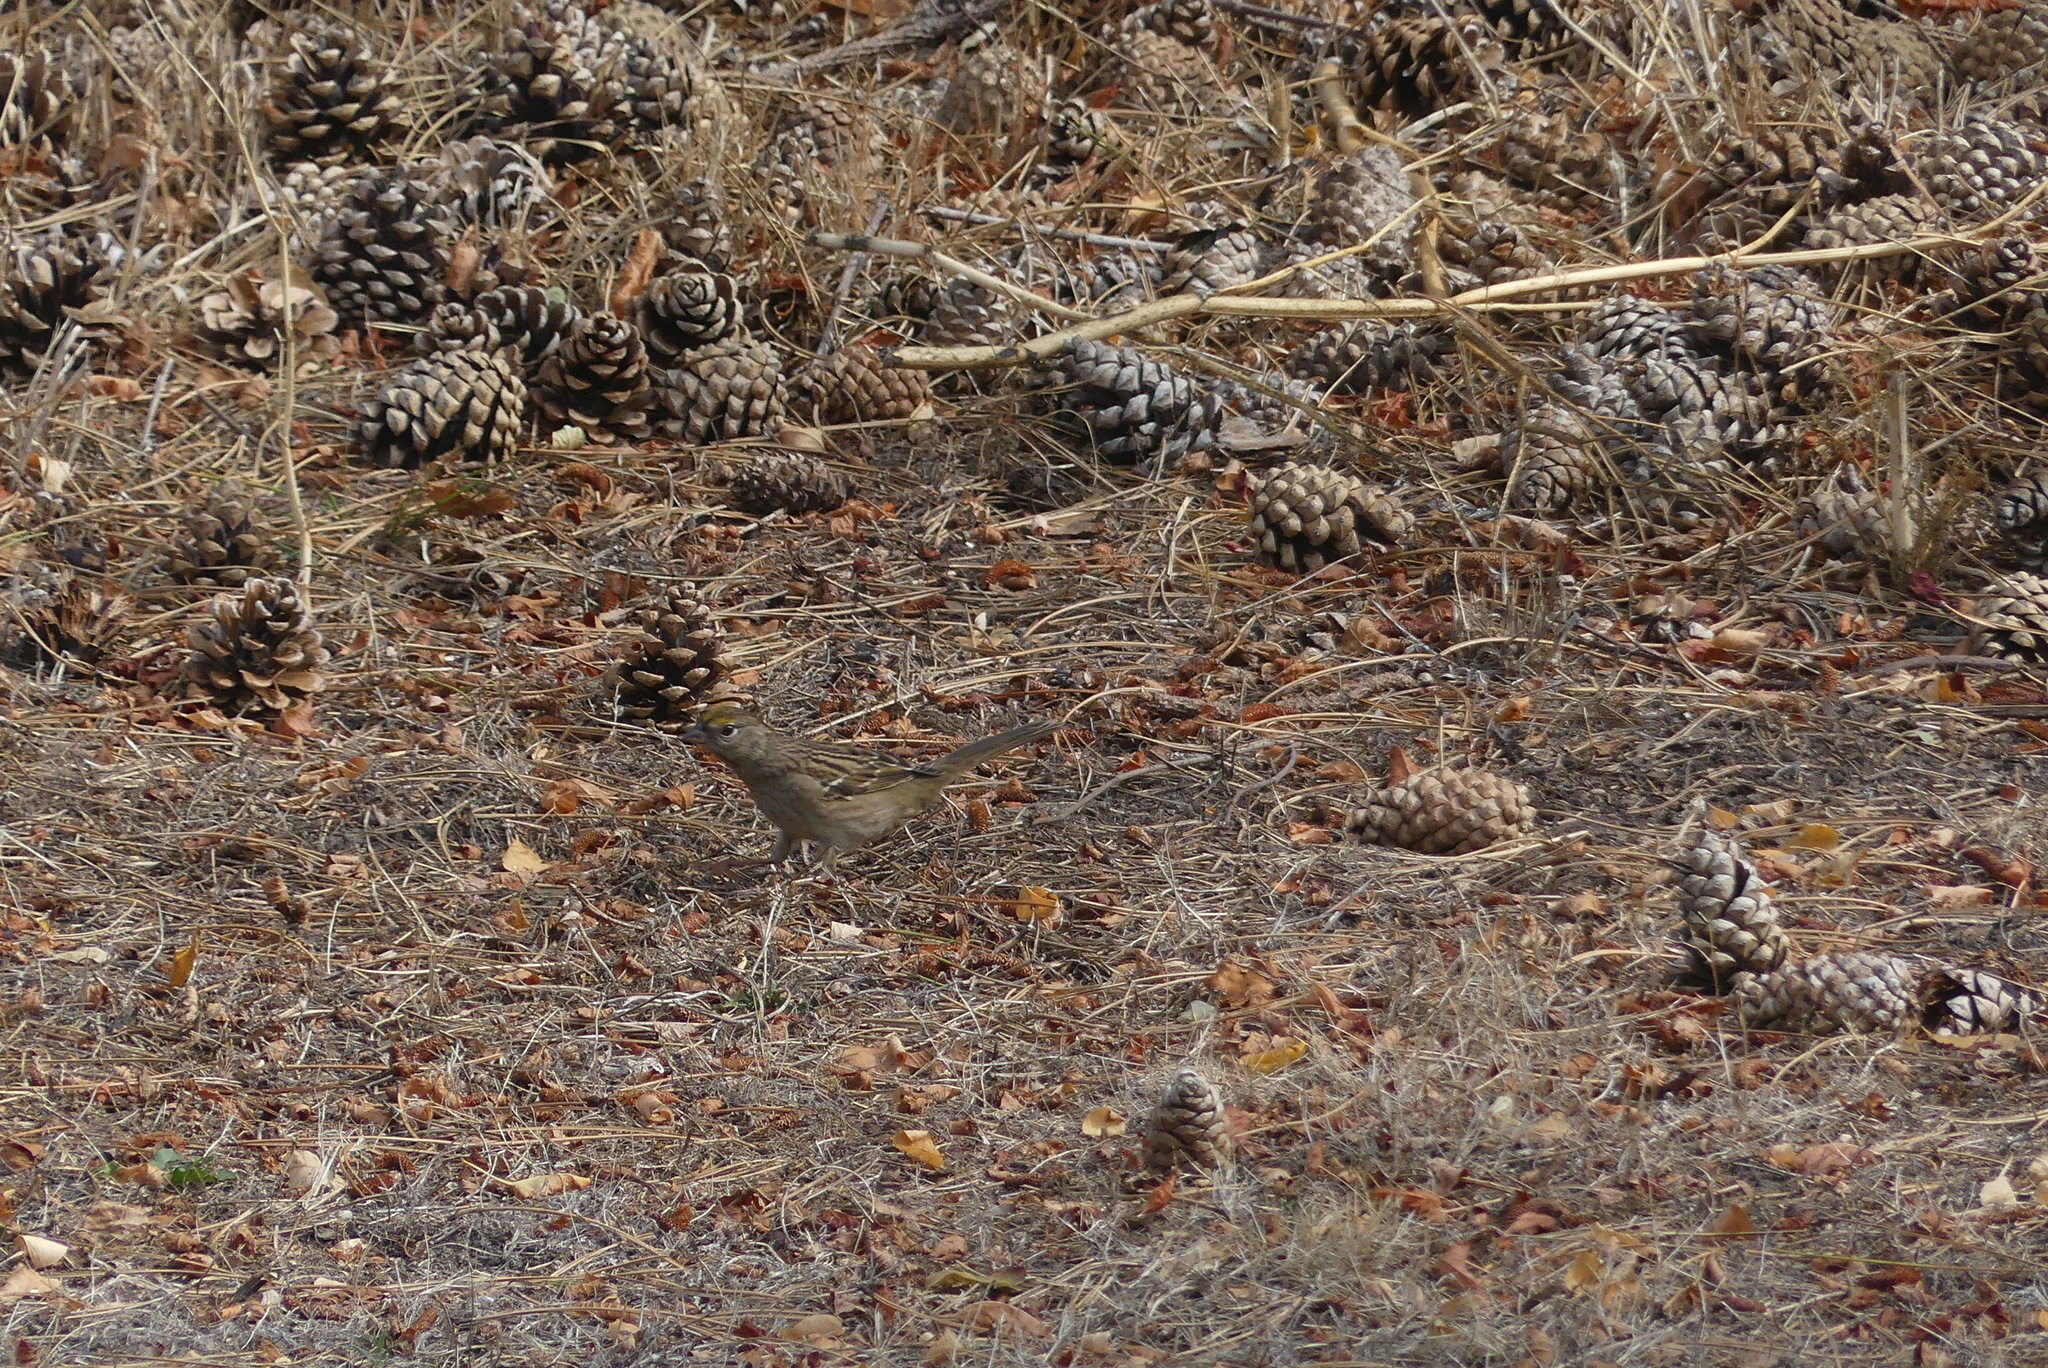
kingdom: Animalia
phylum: Chordata
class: Aves
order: Passeriformes
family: Passerellidae
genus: Zonotrichia
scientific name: Zonotrichia atricapilla
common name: Golden-crowned sparrow
